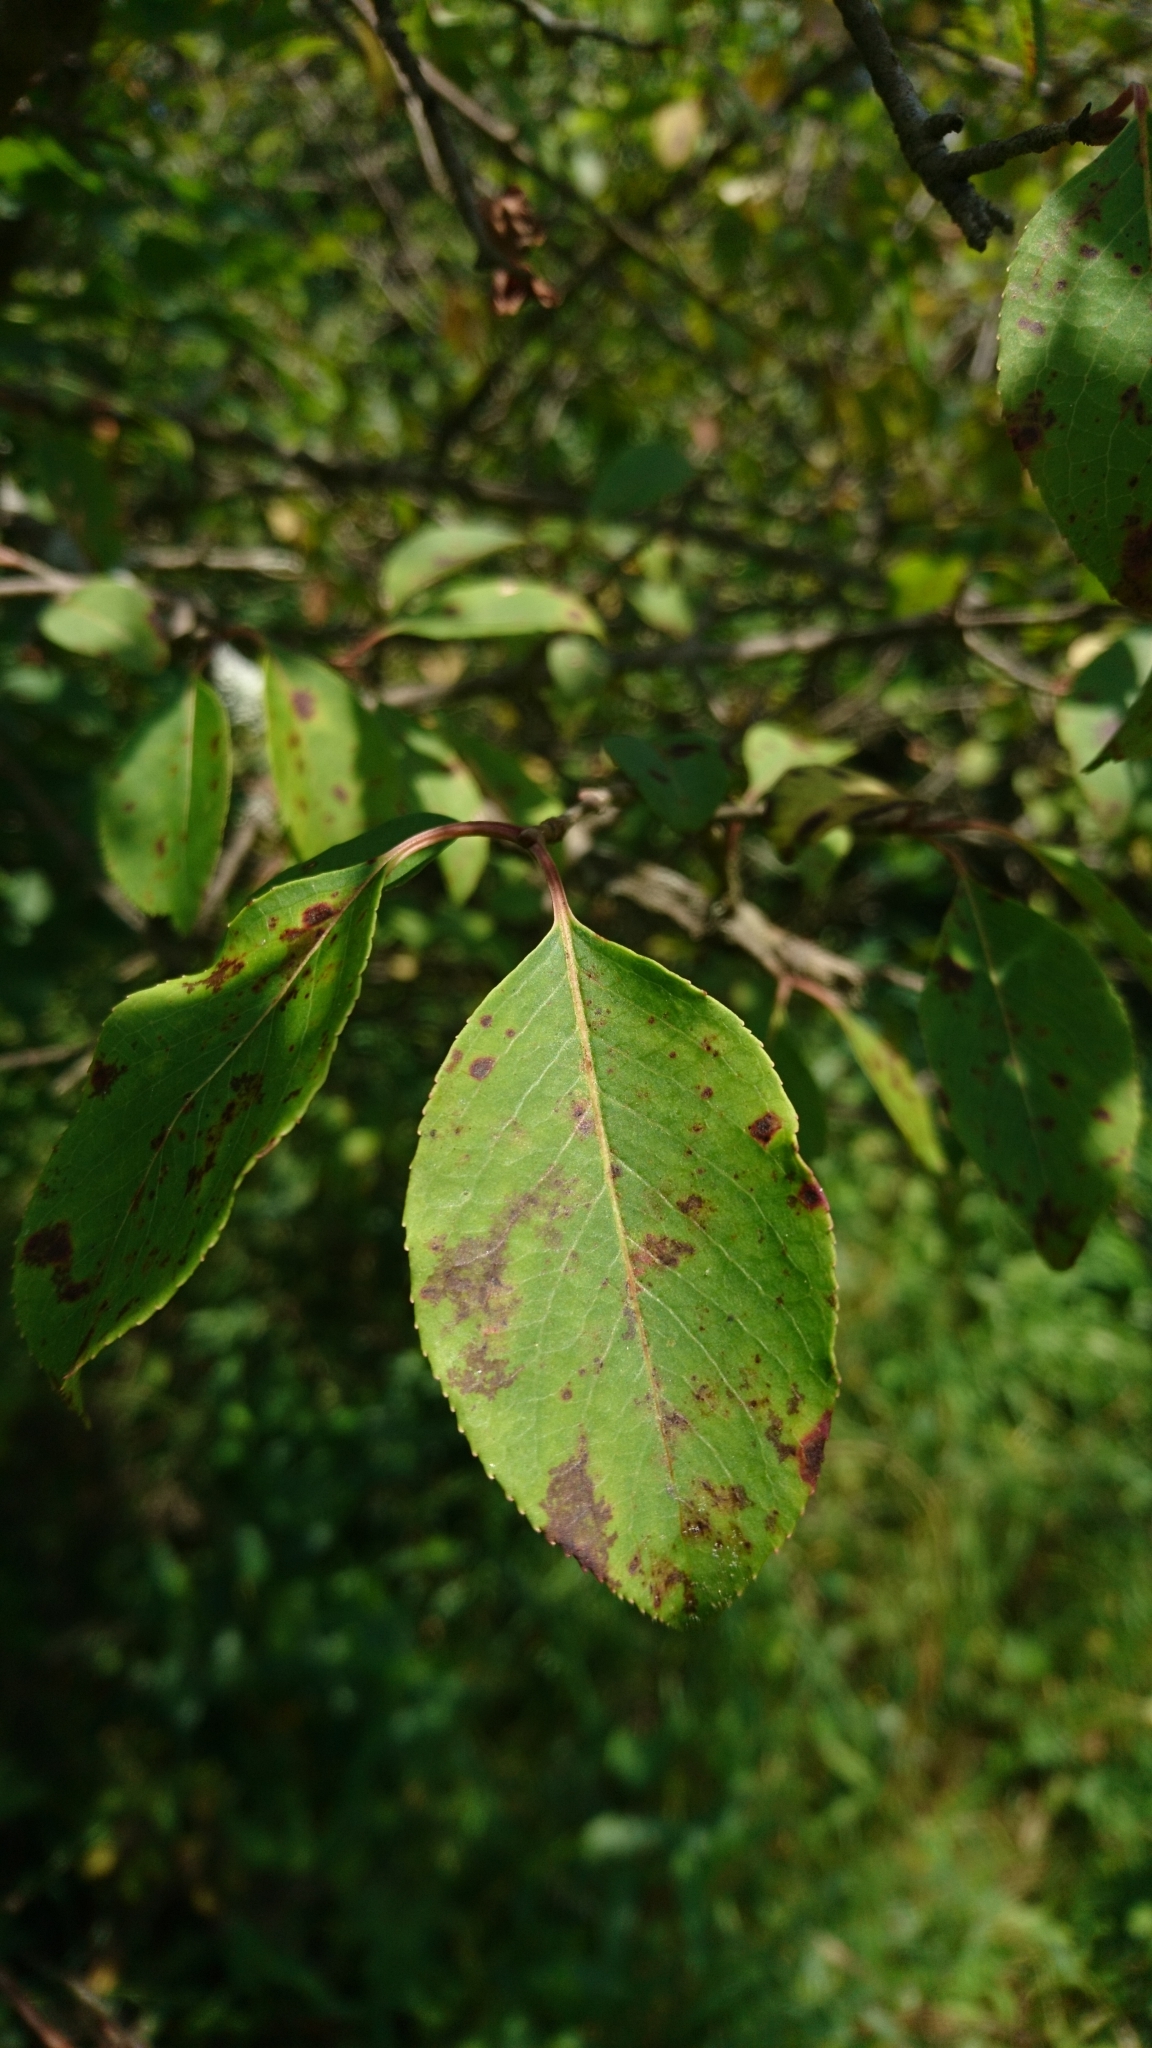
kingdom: Plantae
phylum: Tracheophyta
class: Magnoliopsida
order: Dipsacales
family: Viburnaceae
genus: Viburnum
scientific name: Viburnum prunifolium
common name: Black haw
